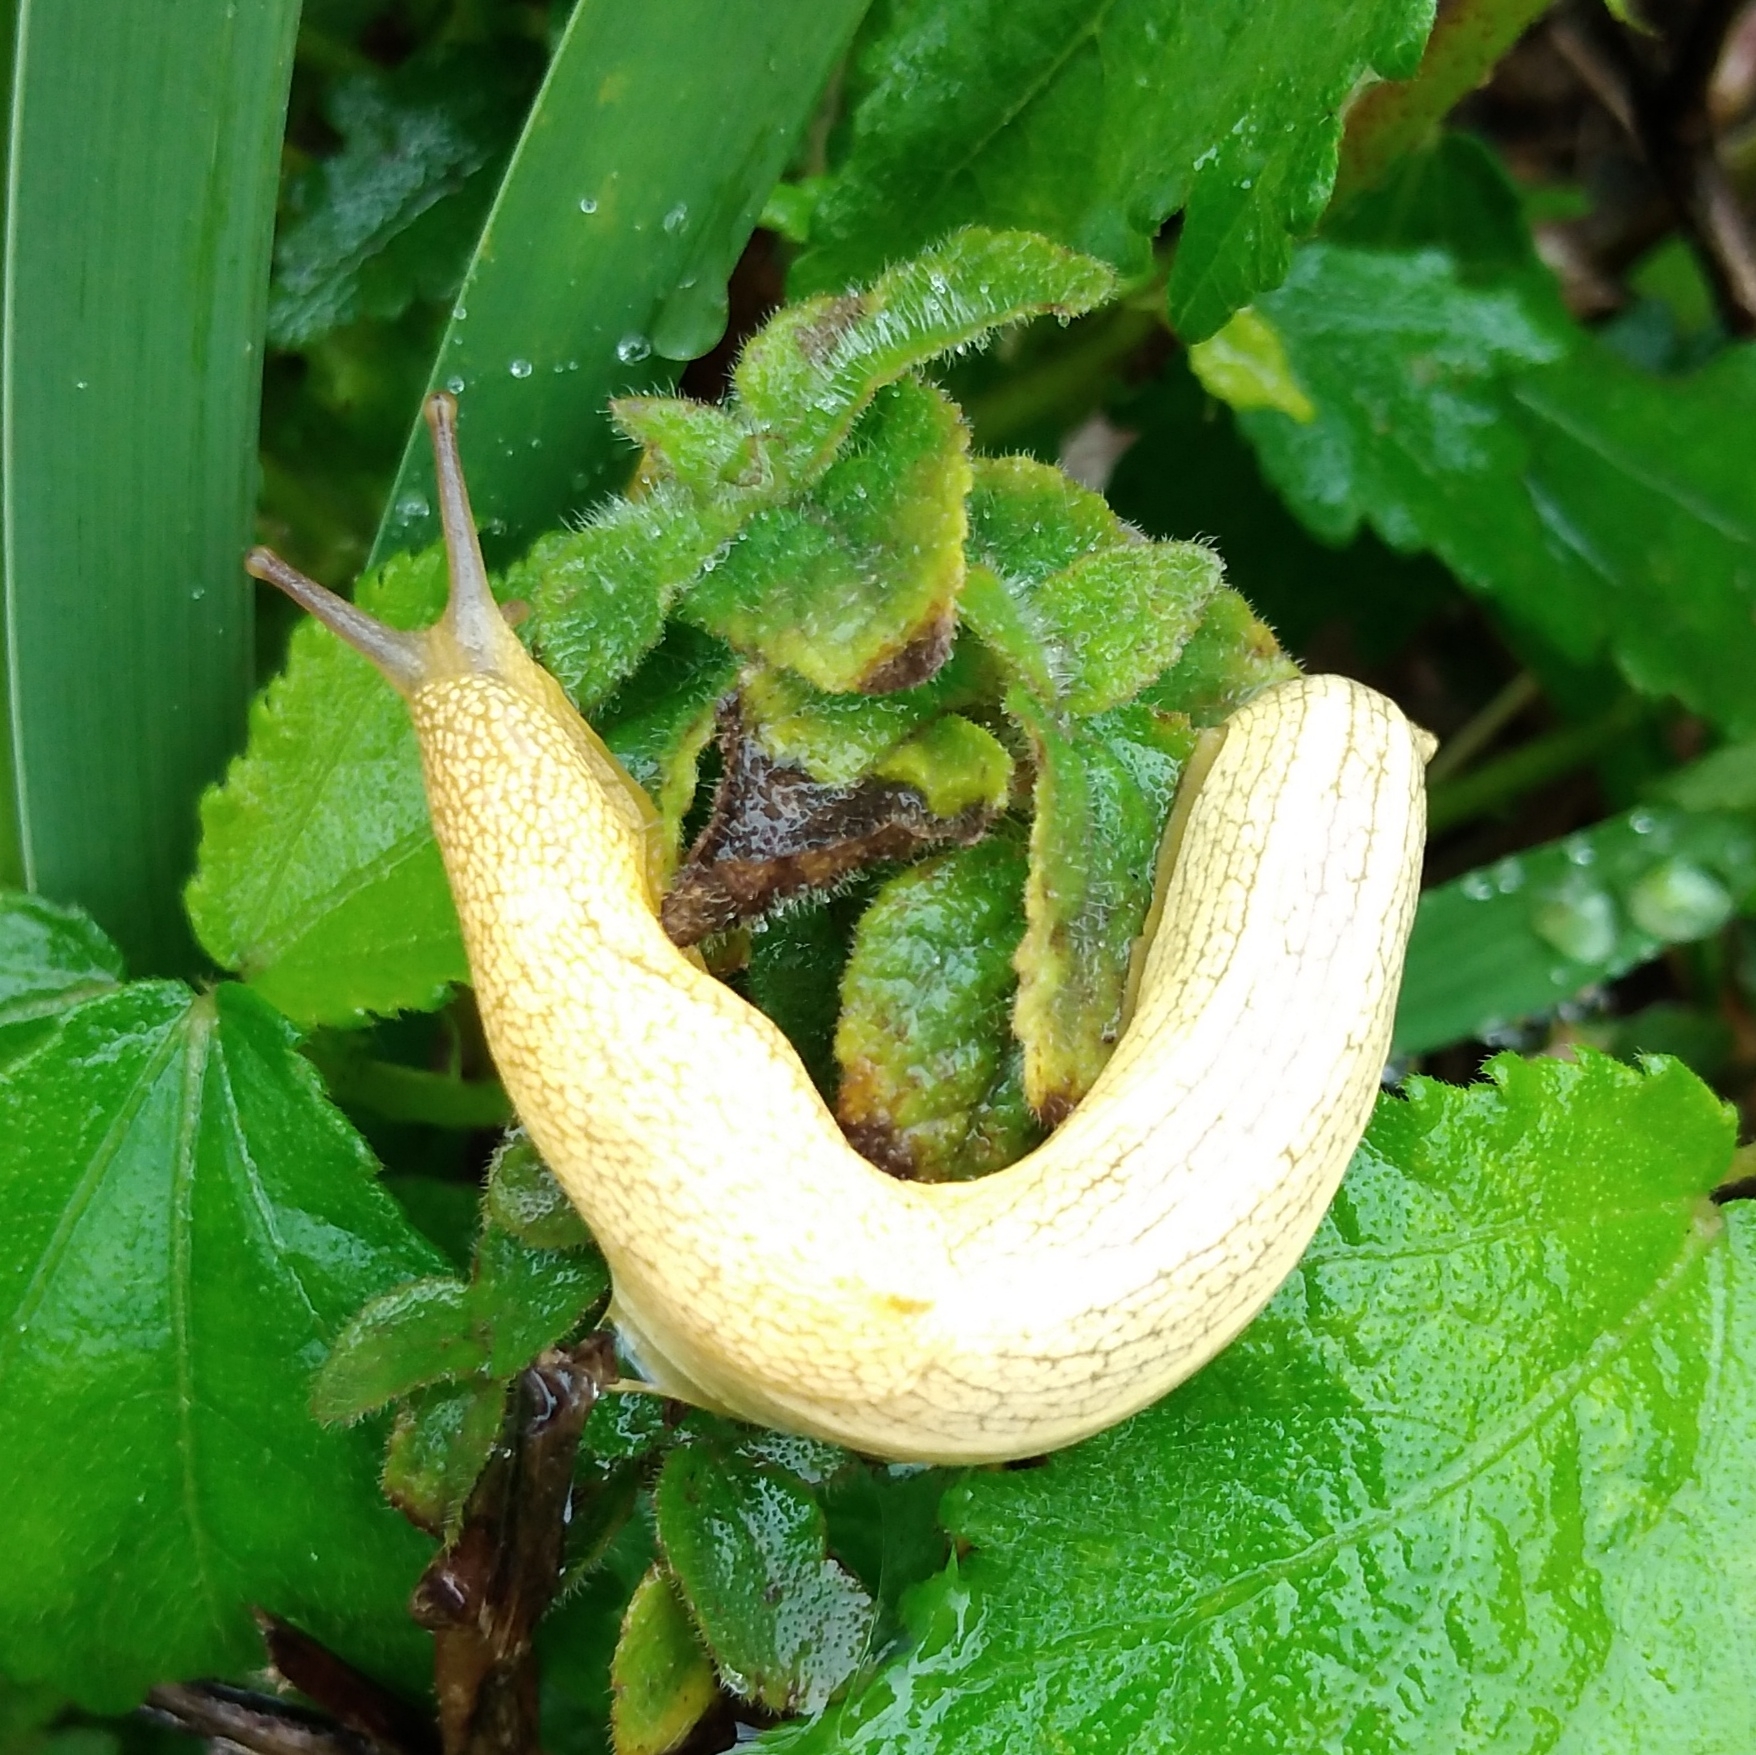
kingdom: Animalia
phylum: Mollusca
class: Gastropoda
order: Stylommatophora
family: Urocyclidae
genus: Elisolimax
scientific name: Elisolimax flavescens
